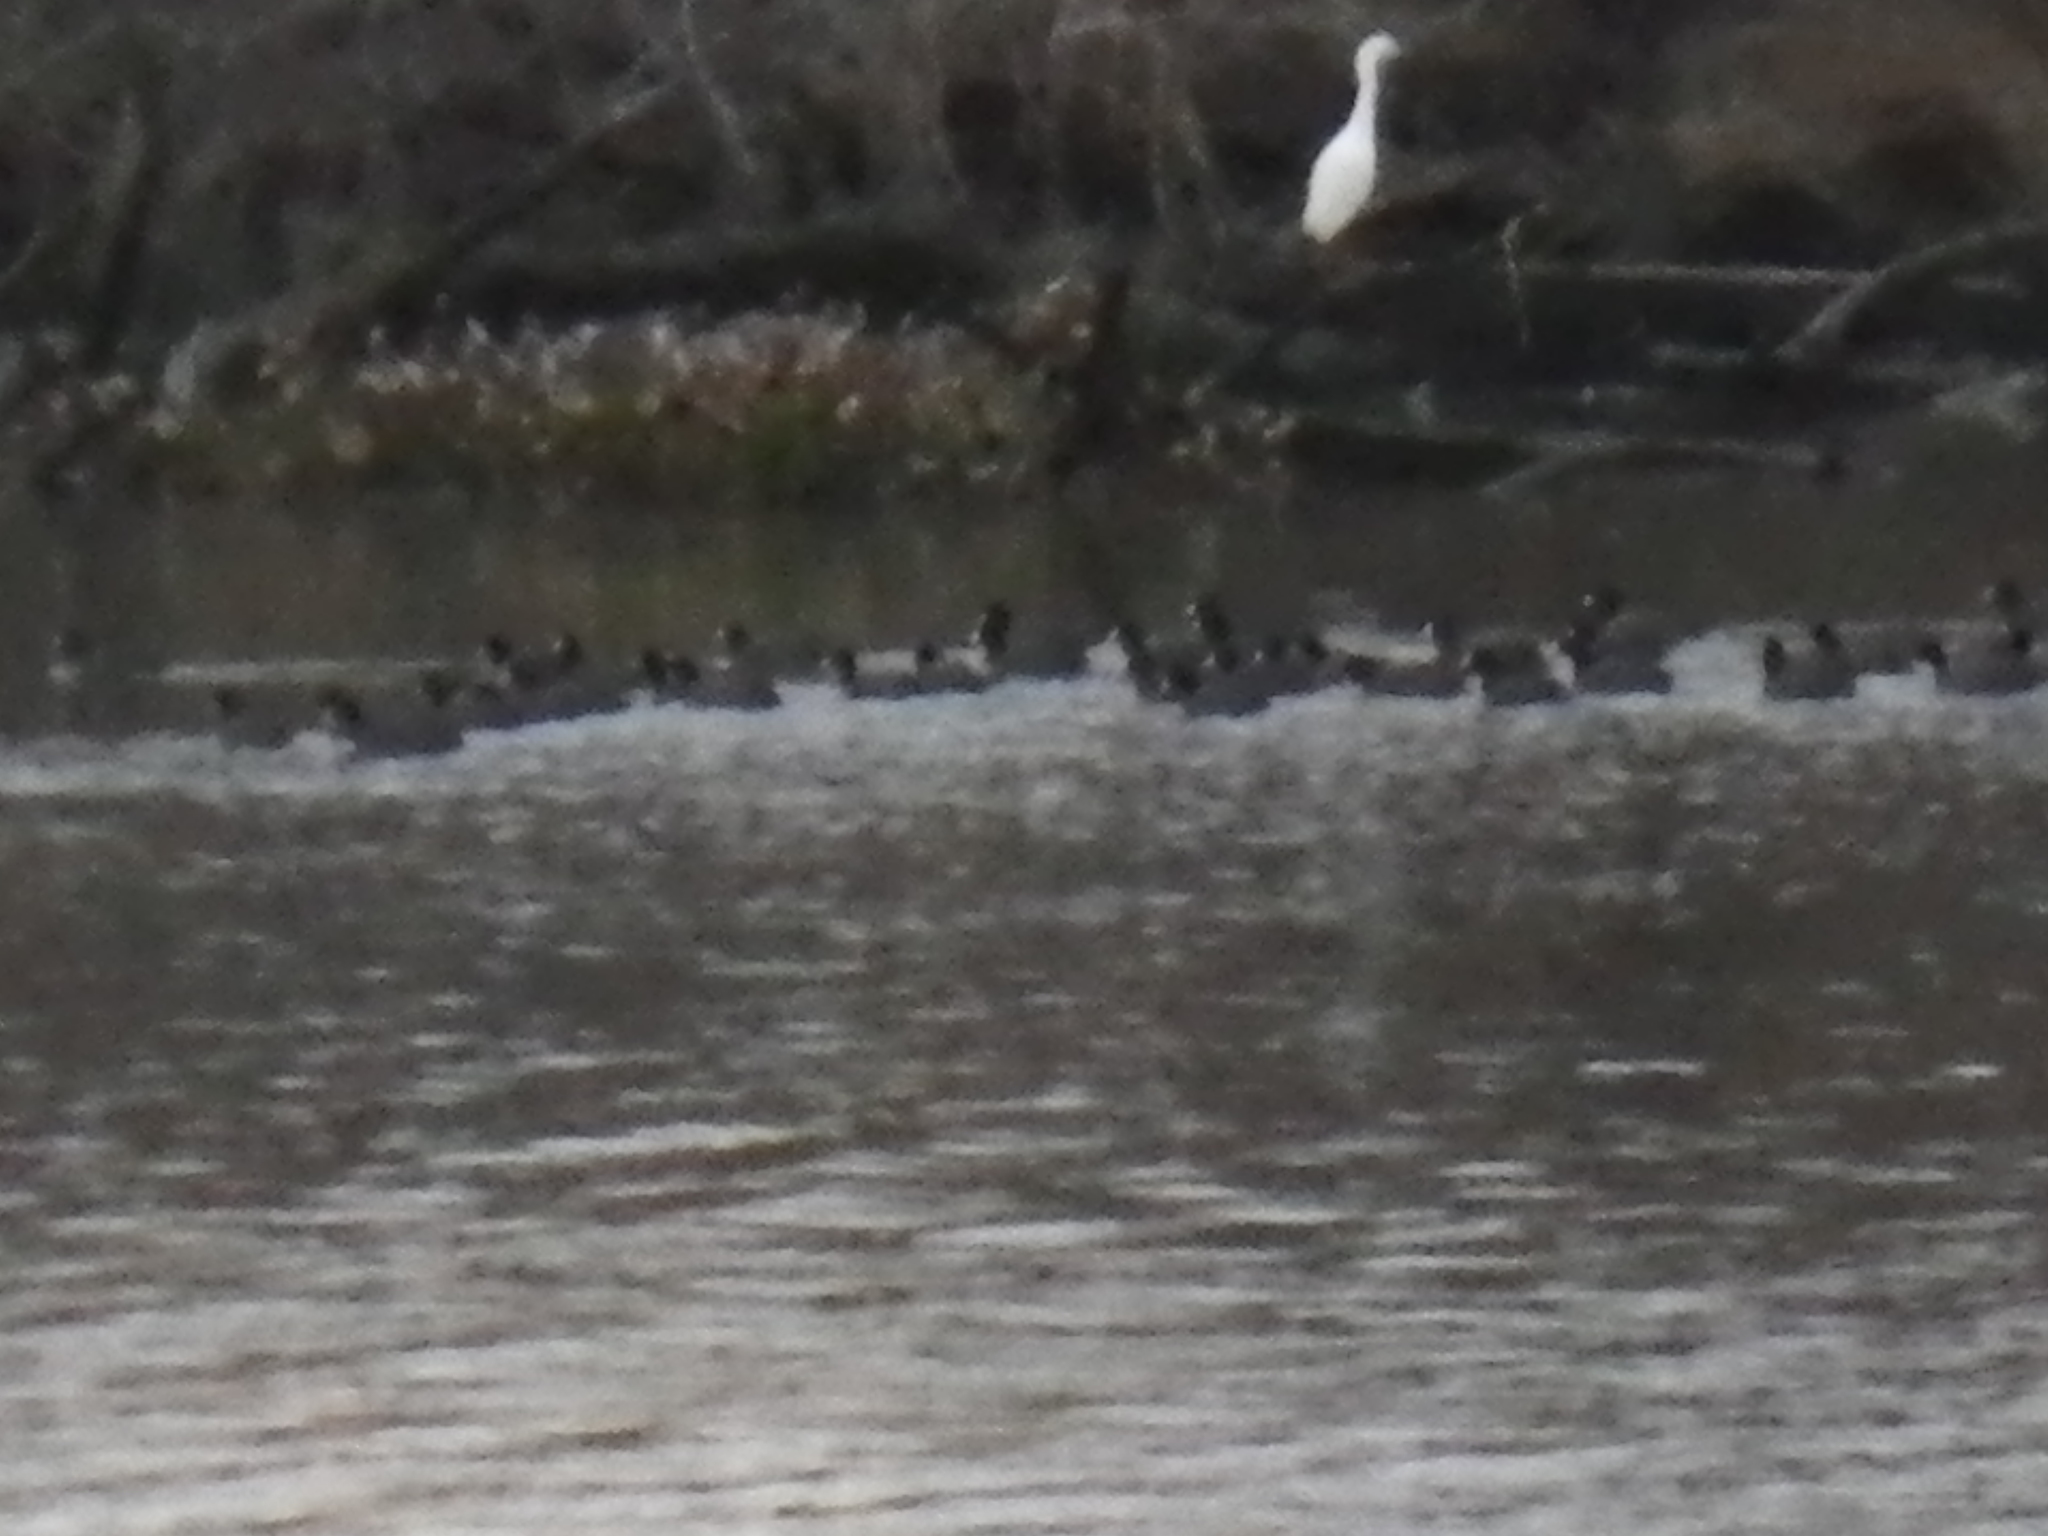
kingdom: Animalia
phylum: Chordata
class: Aves
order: Gruiformes
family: Rallidae
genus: Fulica
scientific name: Fulica americana
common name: American coot
